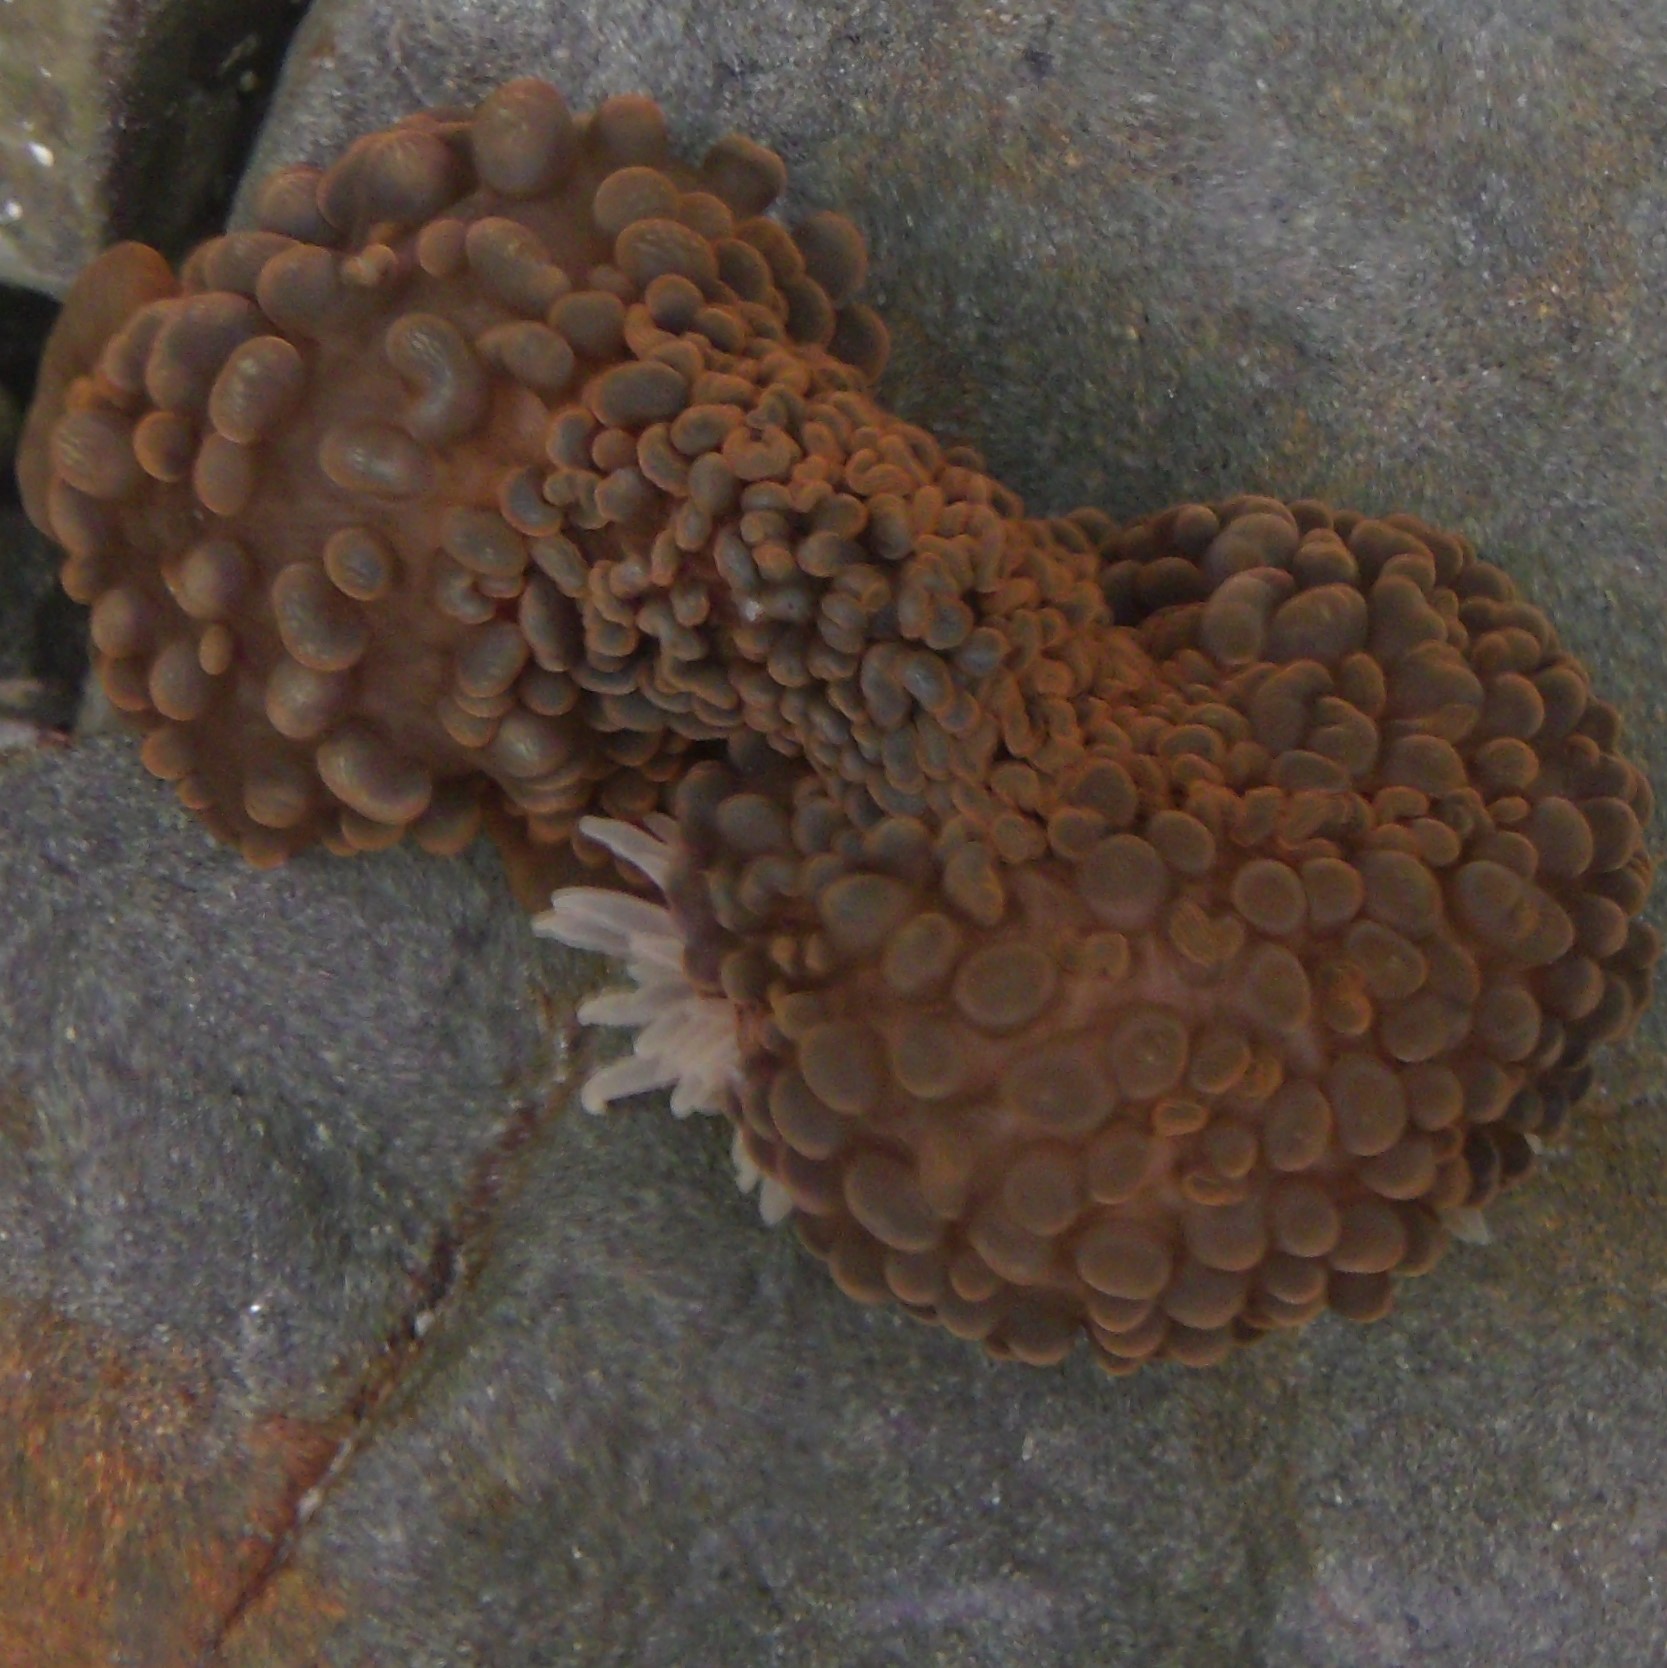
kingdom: Animalia
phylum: Cnidaria
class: Anthozoa
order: Actiniaria
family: Actiniidae
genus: Phlyctenactis
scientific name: Phlyctenactis tuberculosa
